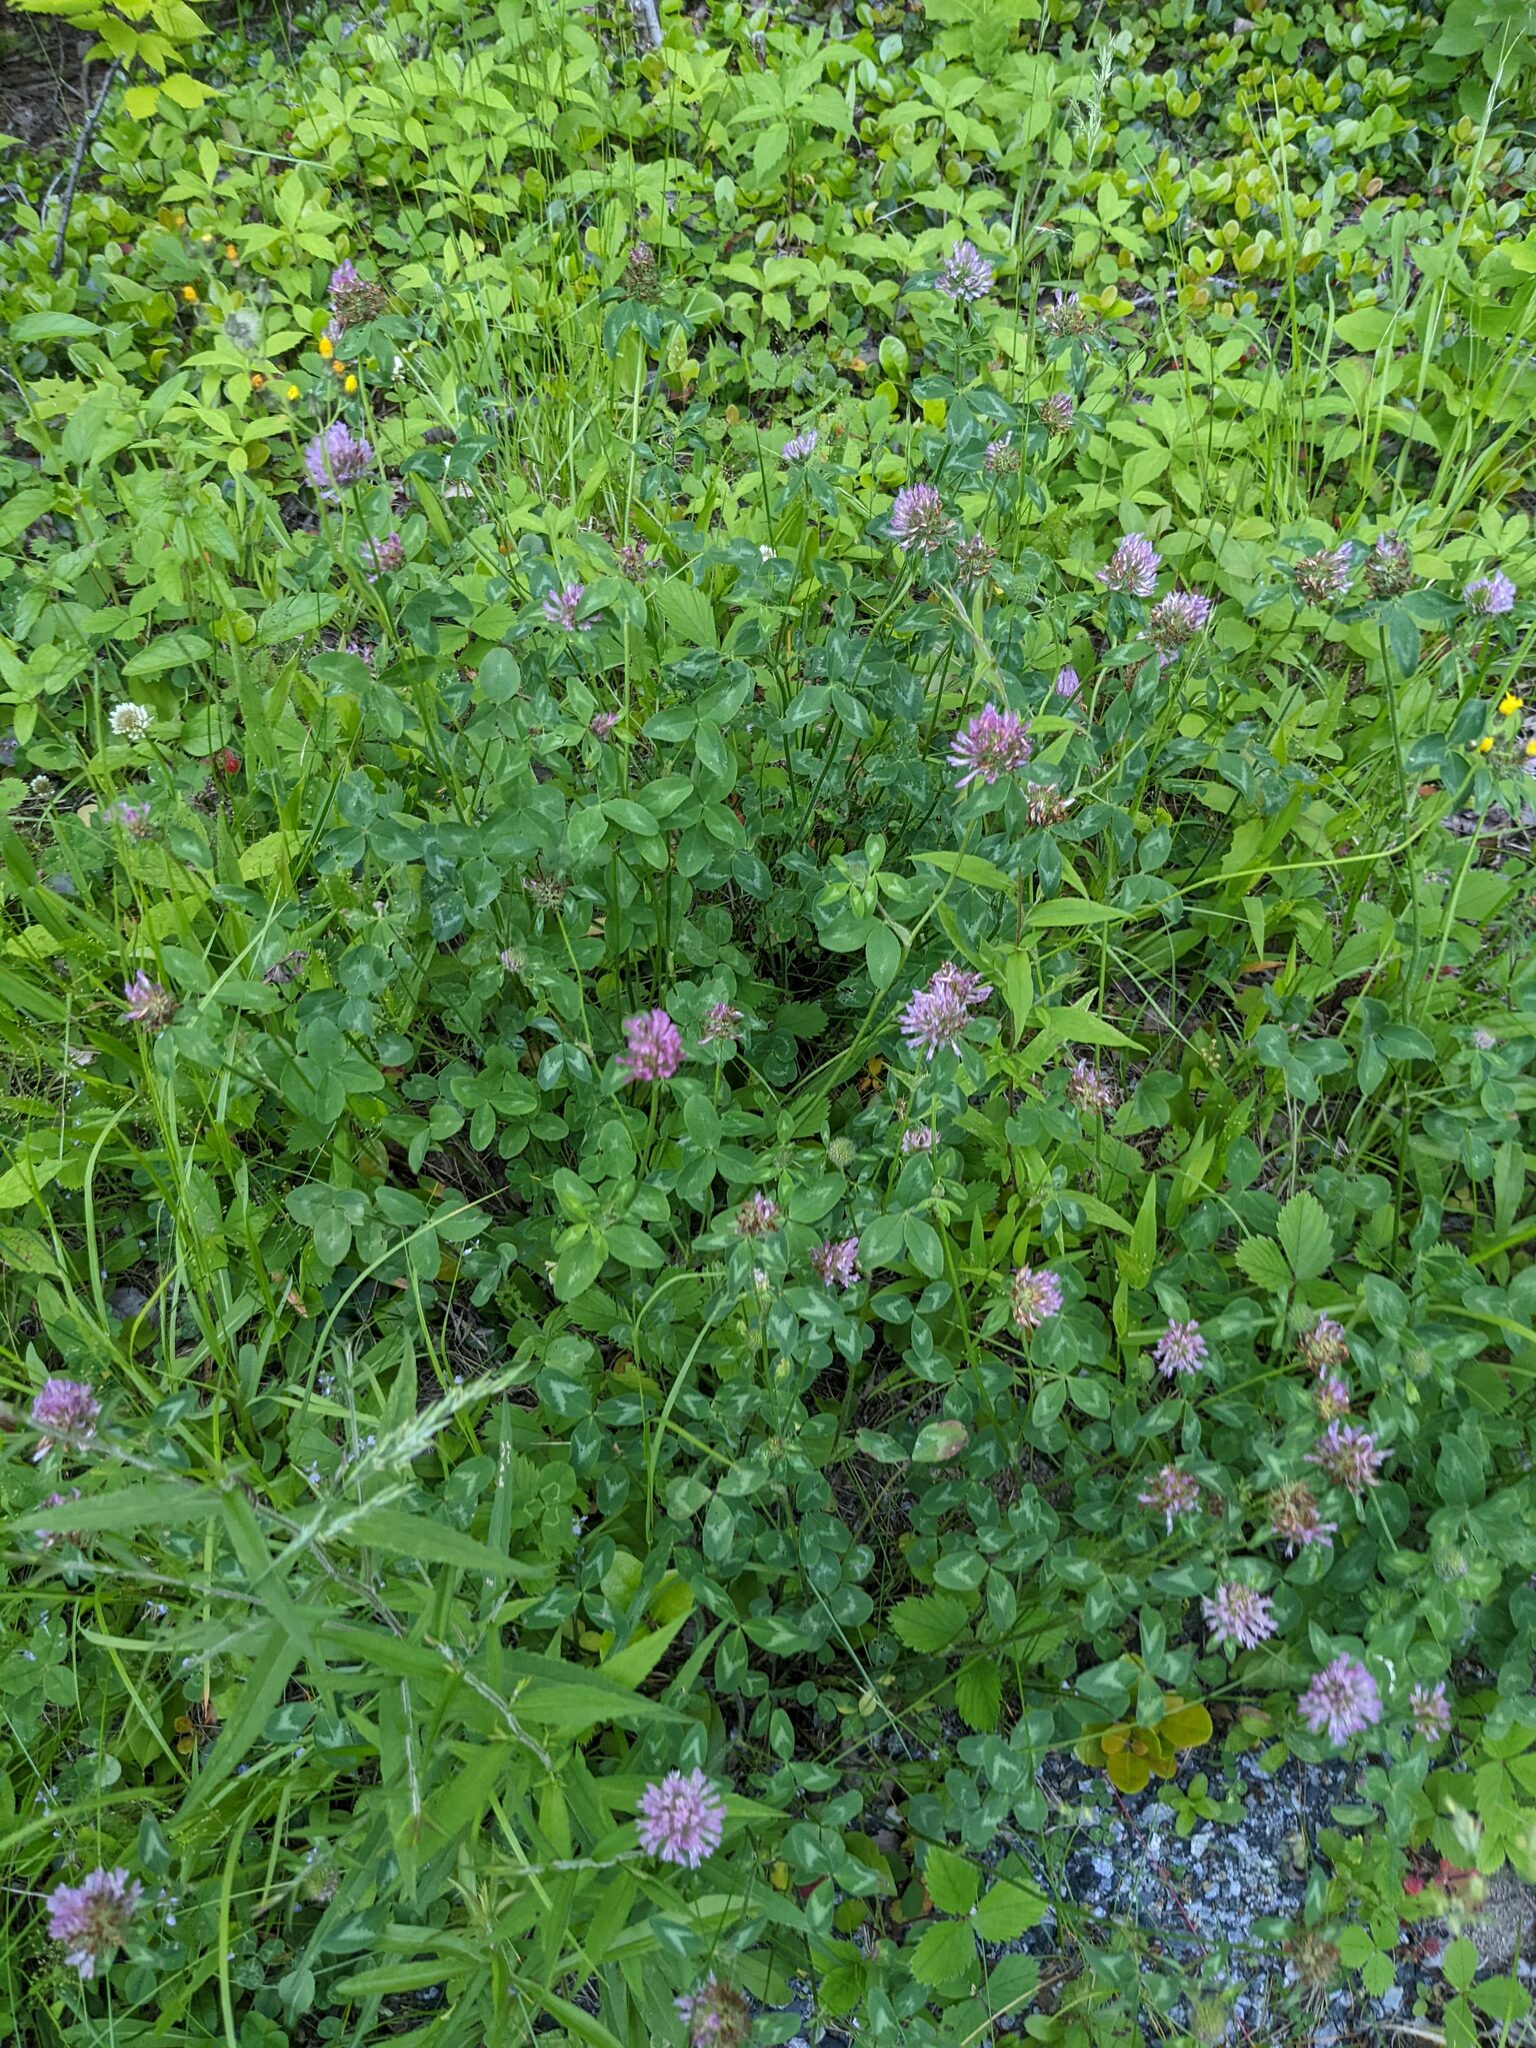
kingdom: Plantae
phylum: Tracheophyta
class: Magnoliopsida
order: Fabales
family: Fabaceae
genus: Trifolium
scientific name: Trifolium pratense
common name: Red clover
